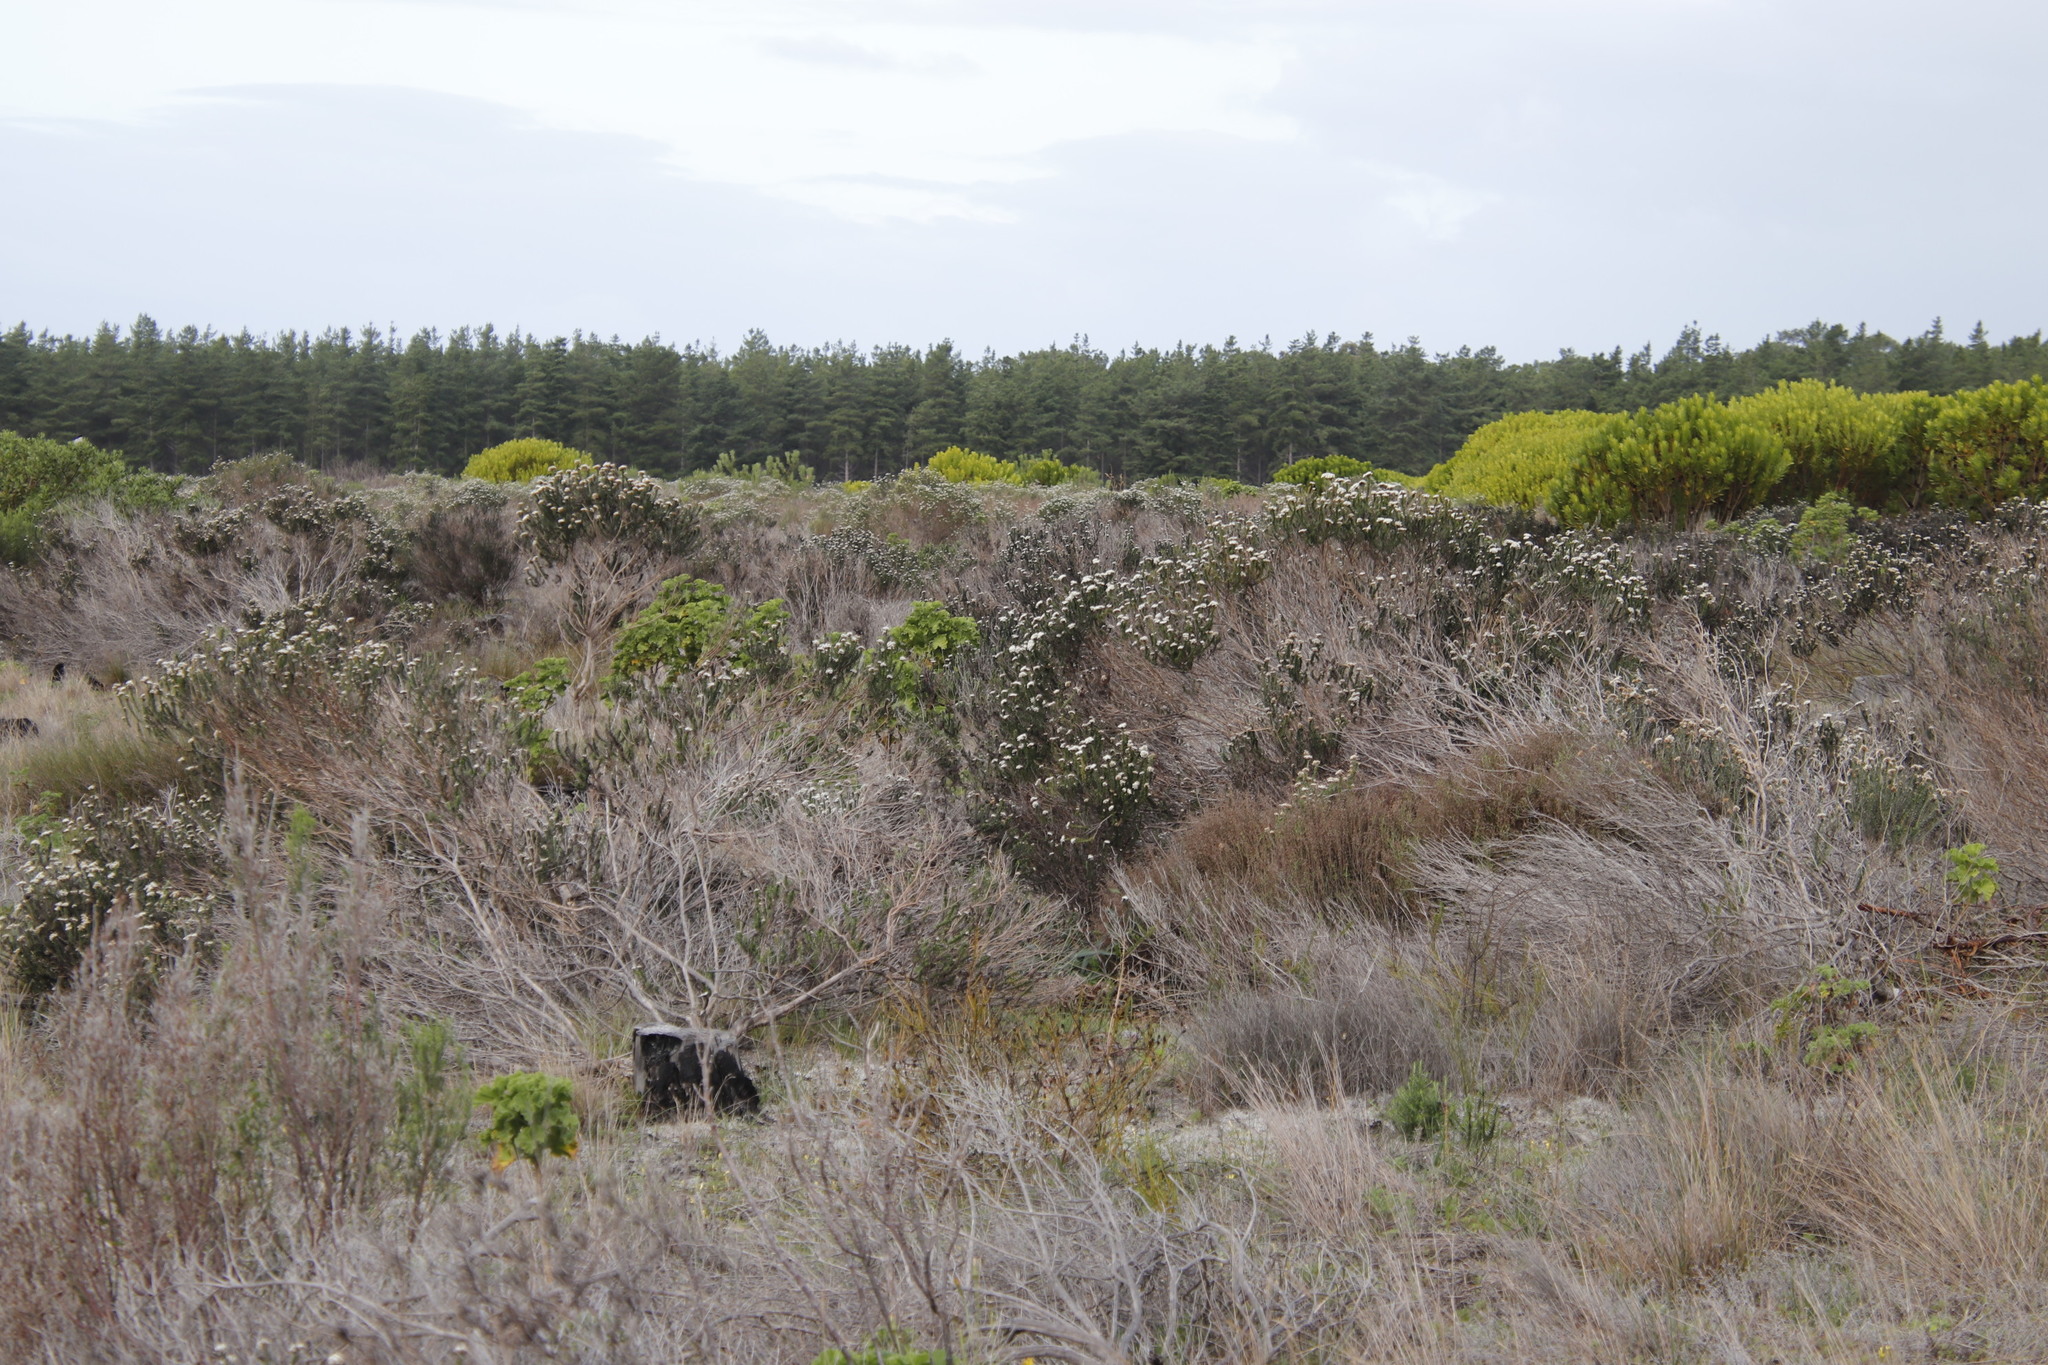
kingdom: Plantae
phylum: Tracheophyta
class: Magnoliopsida
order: Asterales
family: Asteraceae
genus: Metalasia
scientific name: Metalasia densa
